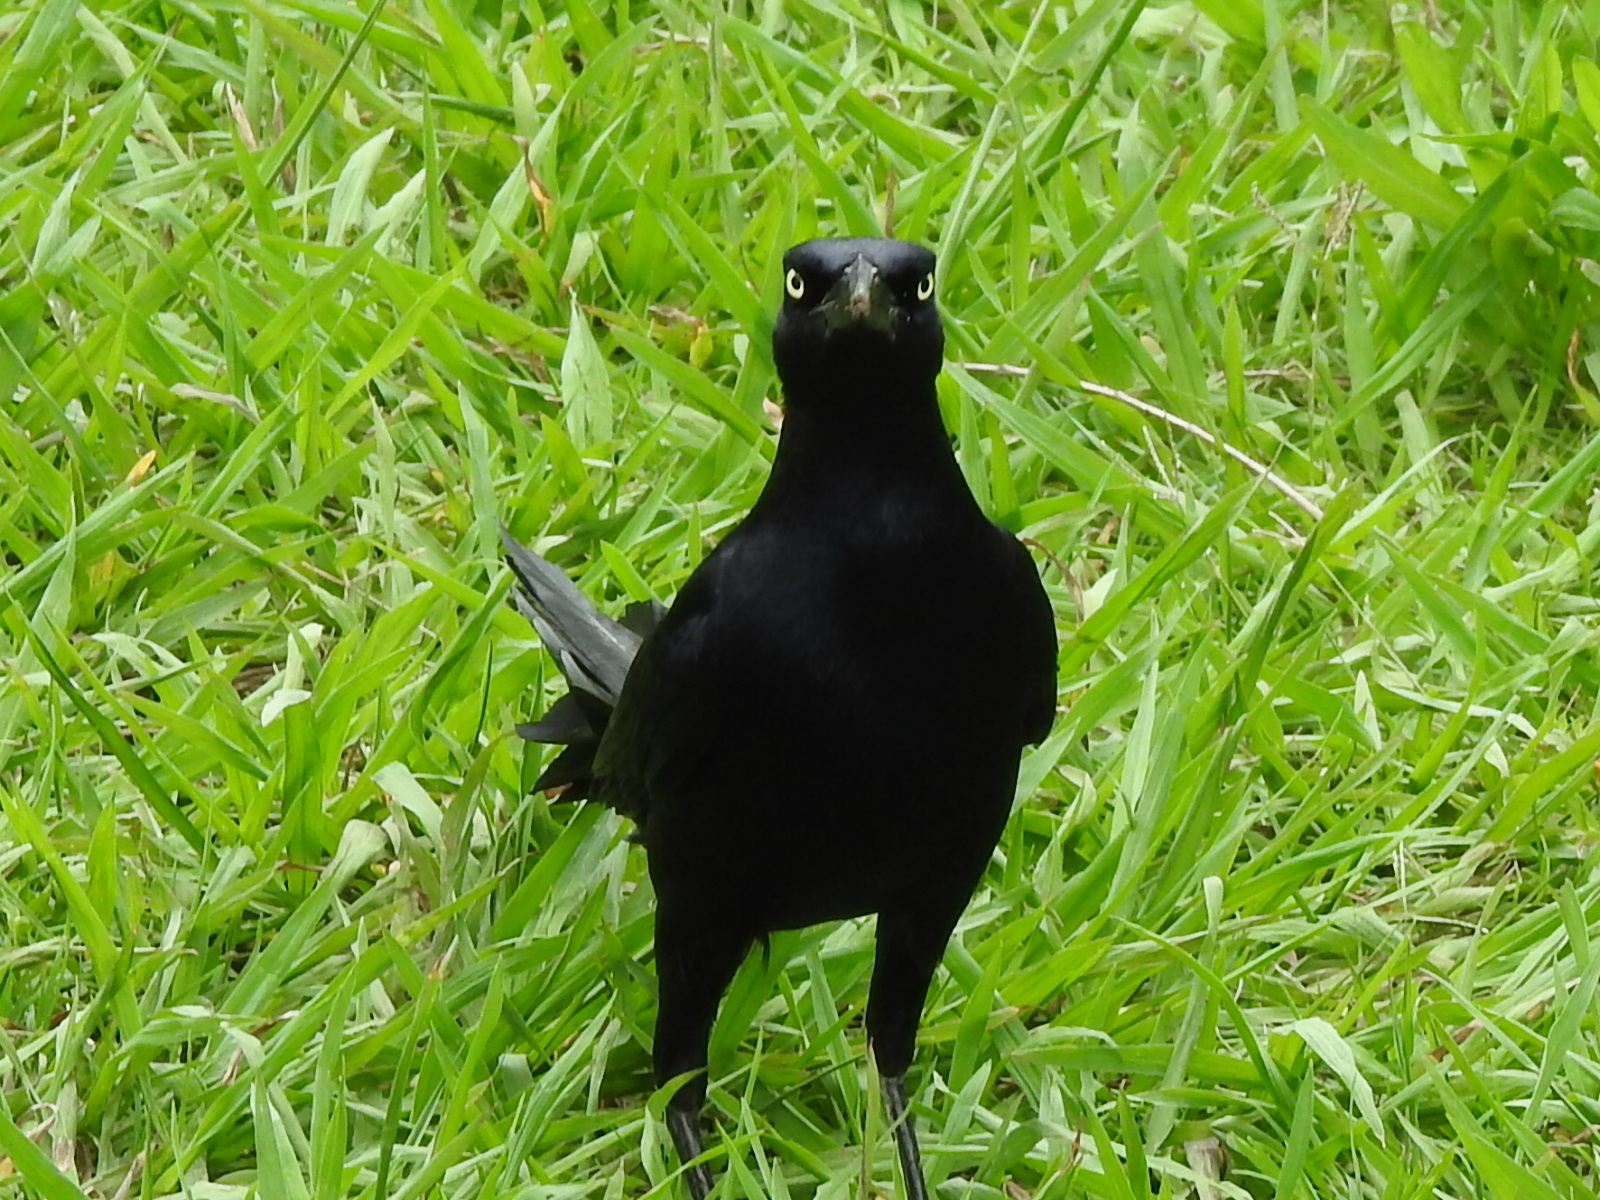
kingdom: Animalia
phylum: Chordata
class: Aves
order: Passeriformes
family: Icteridae
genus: Quiscalus
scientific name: Quiscalus mexicanus
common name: Great-tailed grackle
